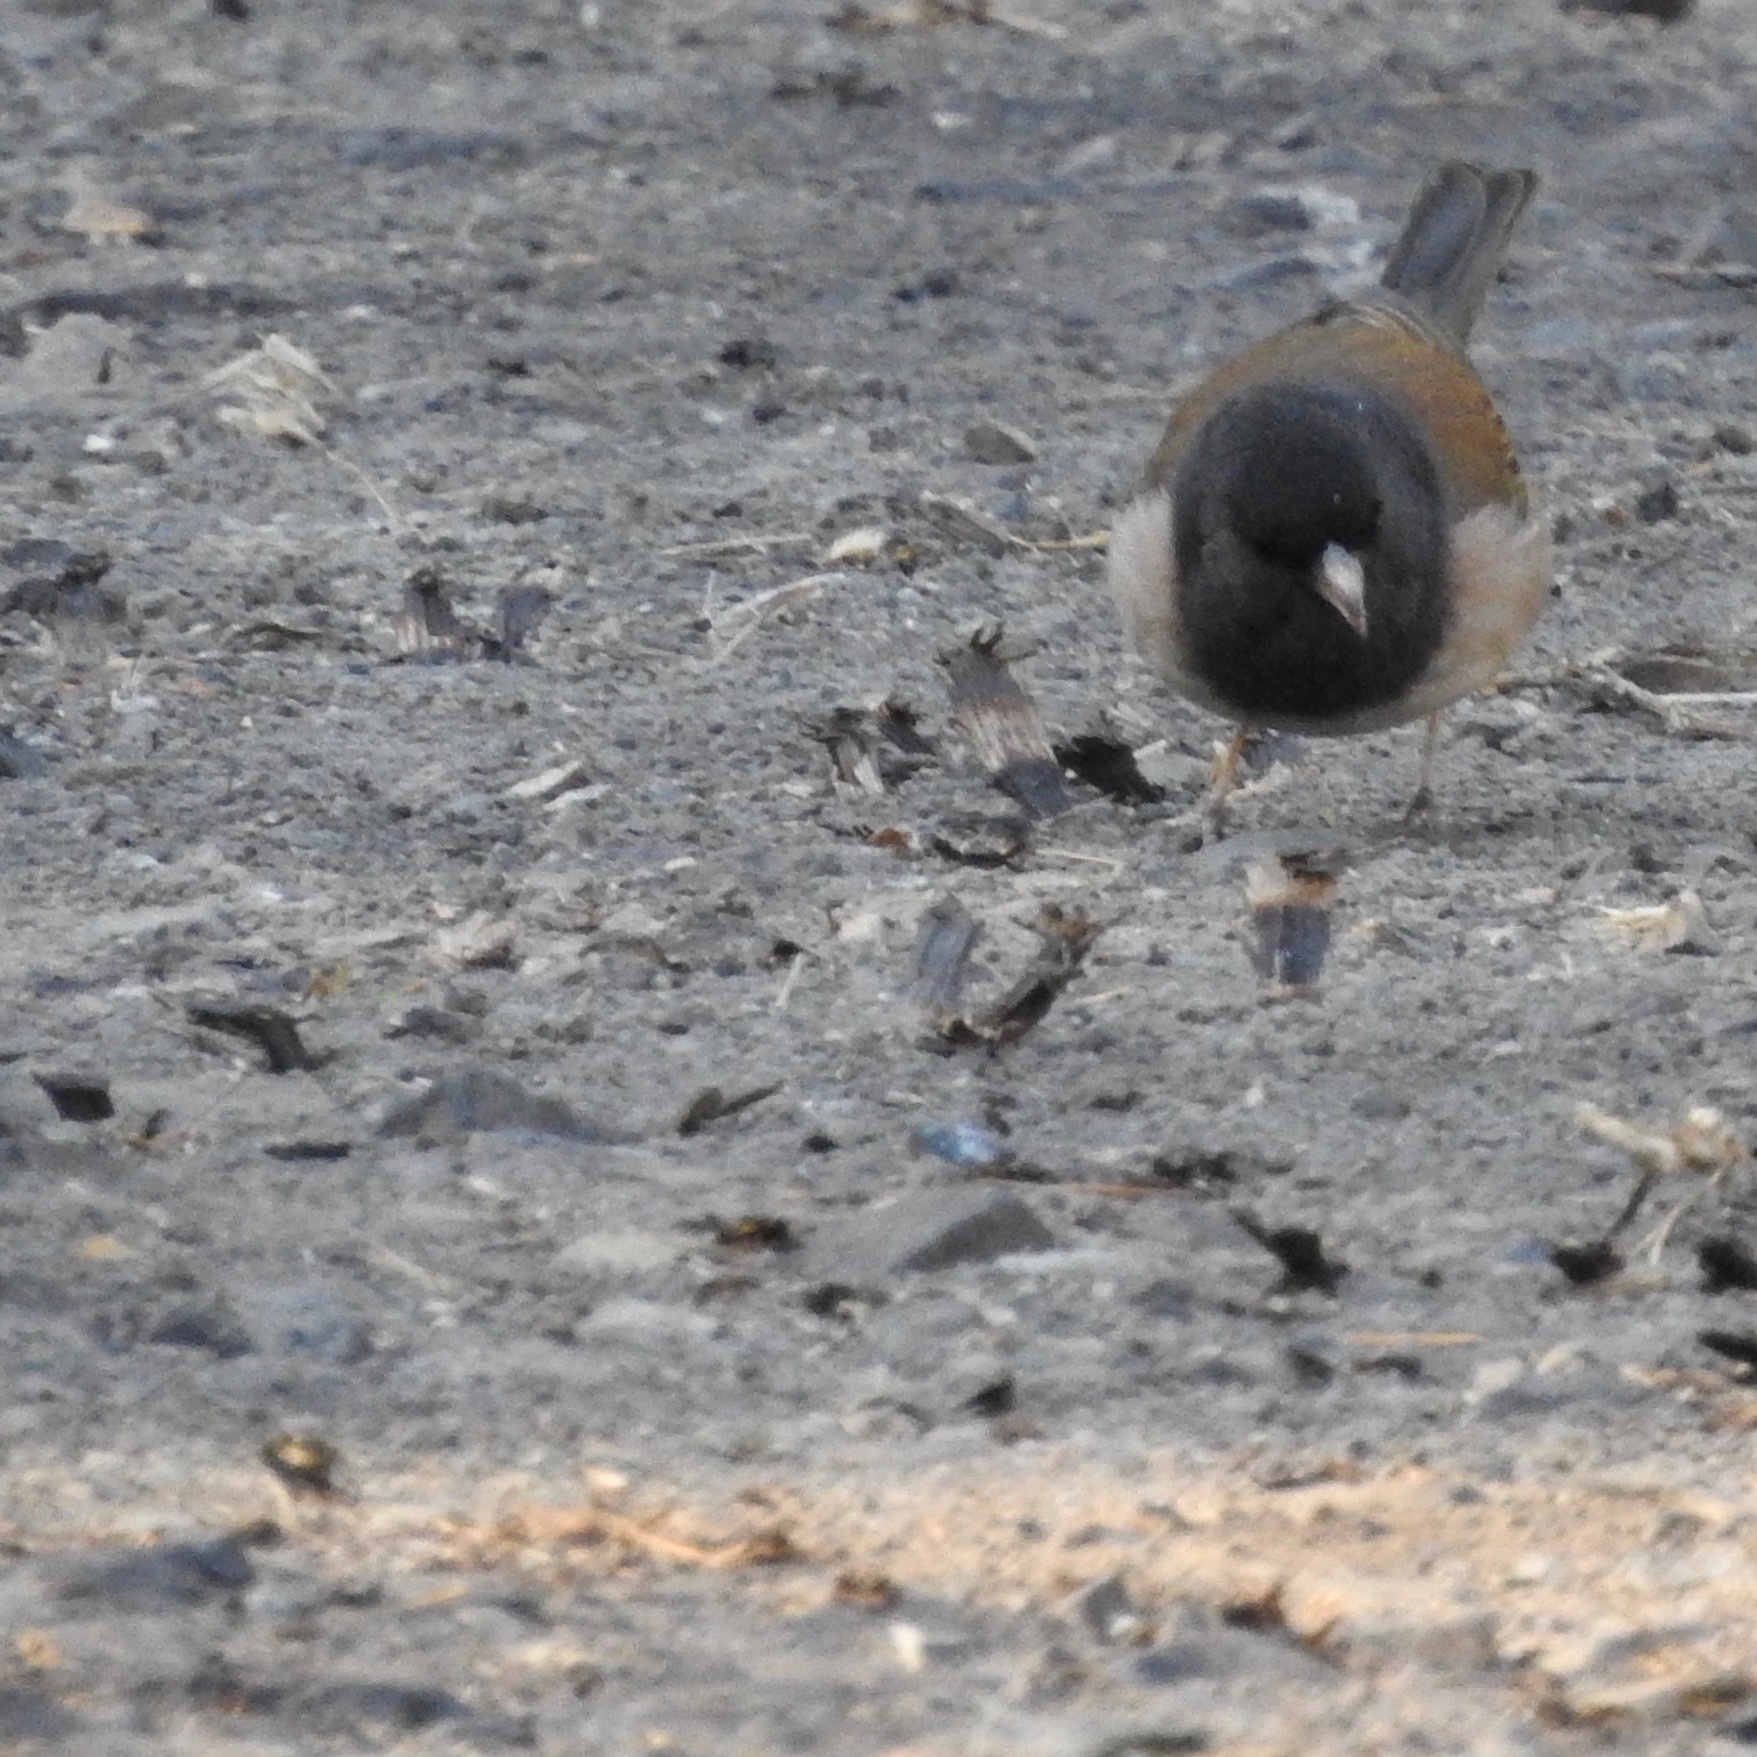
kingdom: Animalia
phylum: Chordata
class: Aves
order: Passeriformes
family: Passerellidae
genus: Junco
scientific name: Junco hyemalis
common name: Dark-eyed junco
